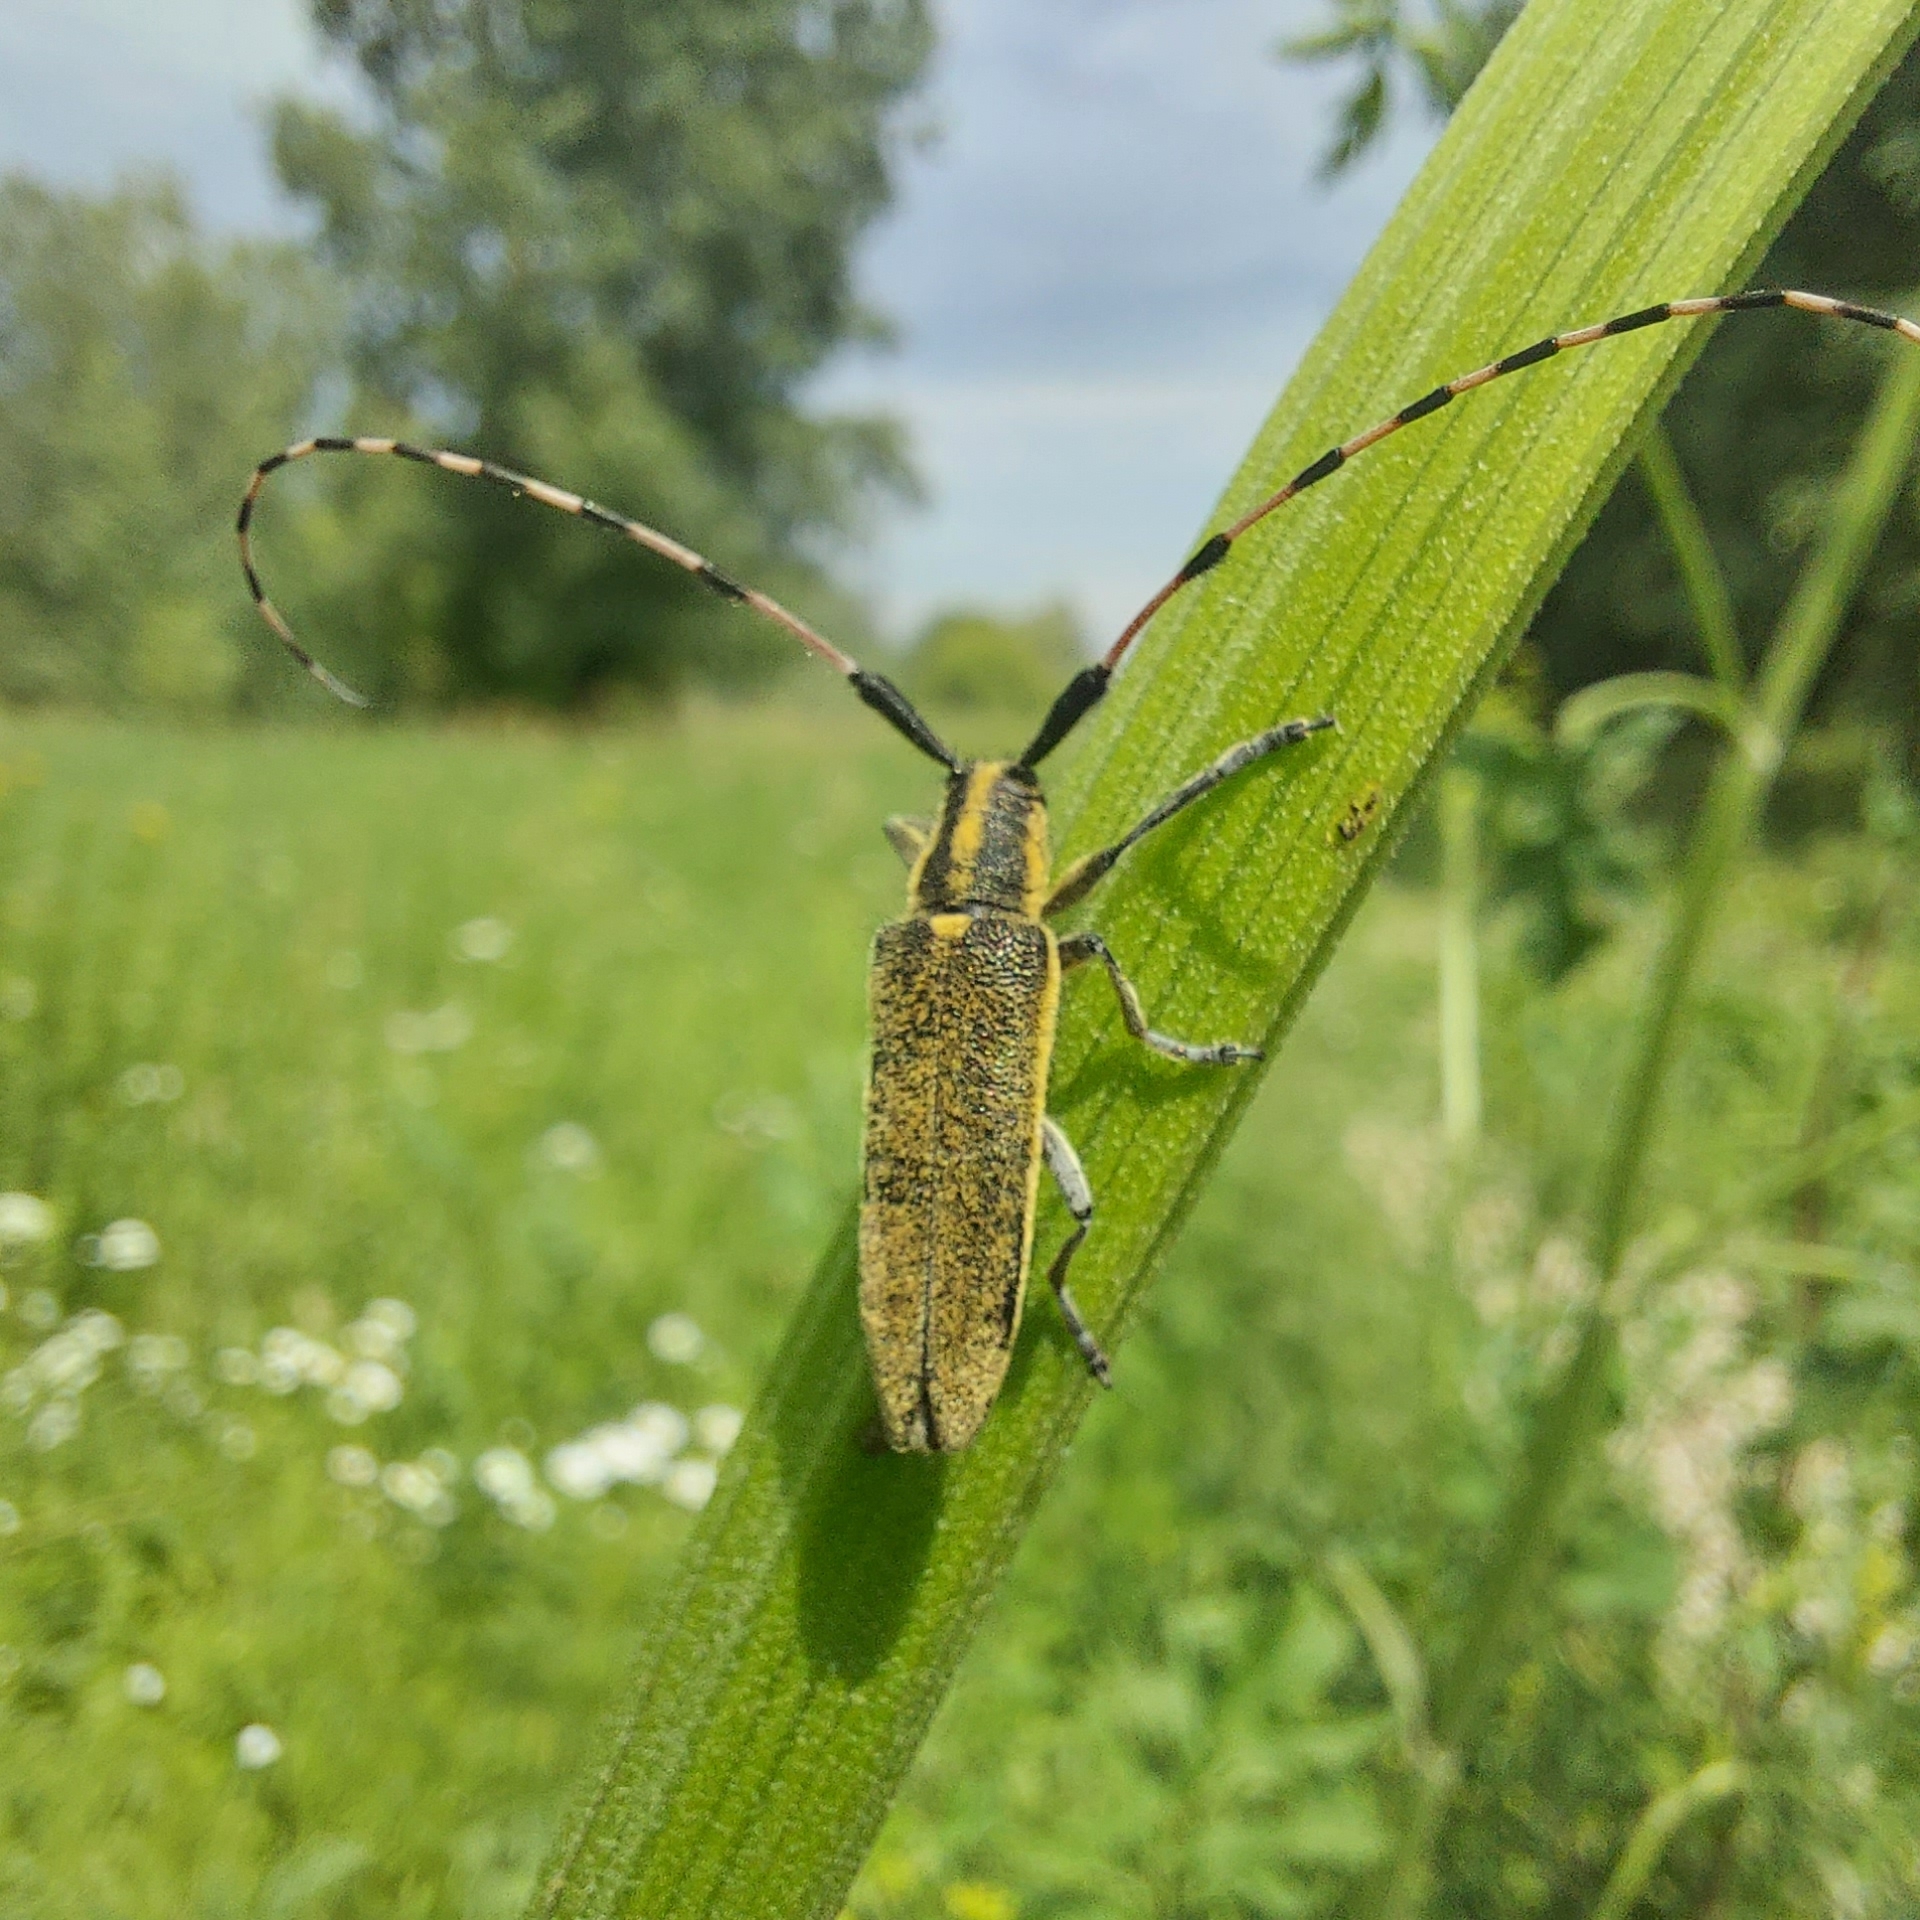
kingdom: Animalia
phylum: Arthropoda
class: Insecta
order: Coleoptera
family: Cerambycidae
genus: Agapanthia
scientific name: Agapanthia dahlii
